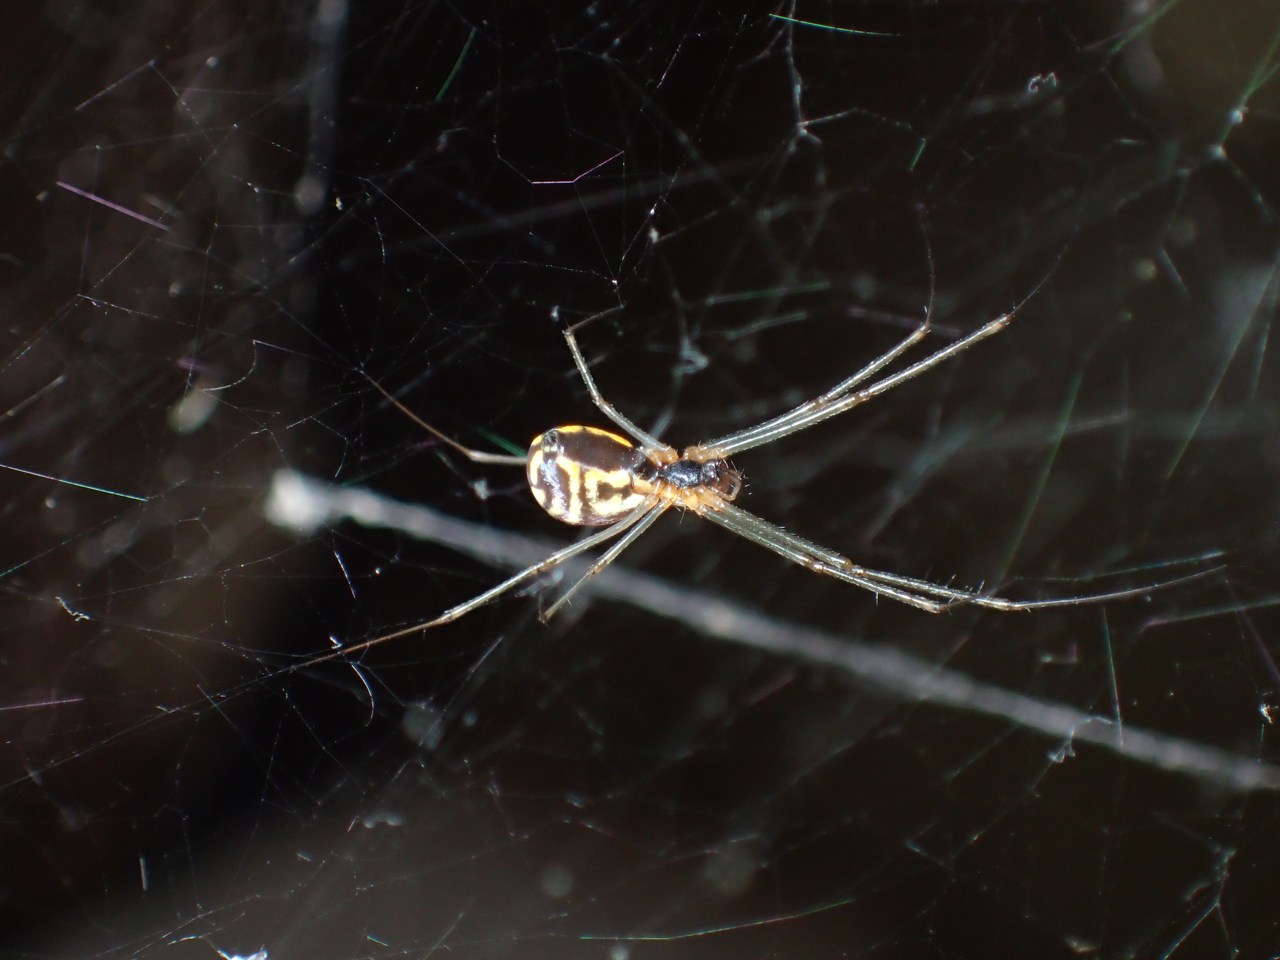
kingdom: Animalia
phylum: Arthropoda
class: Arachnida
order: Araneae
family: Linyphiidae
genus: Neriene
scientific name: Neriene radiata
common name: Filmy dome spider
